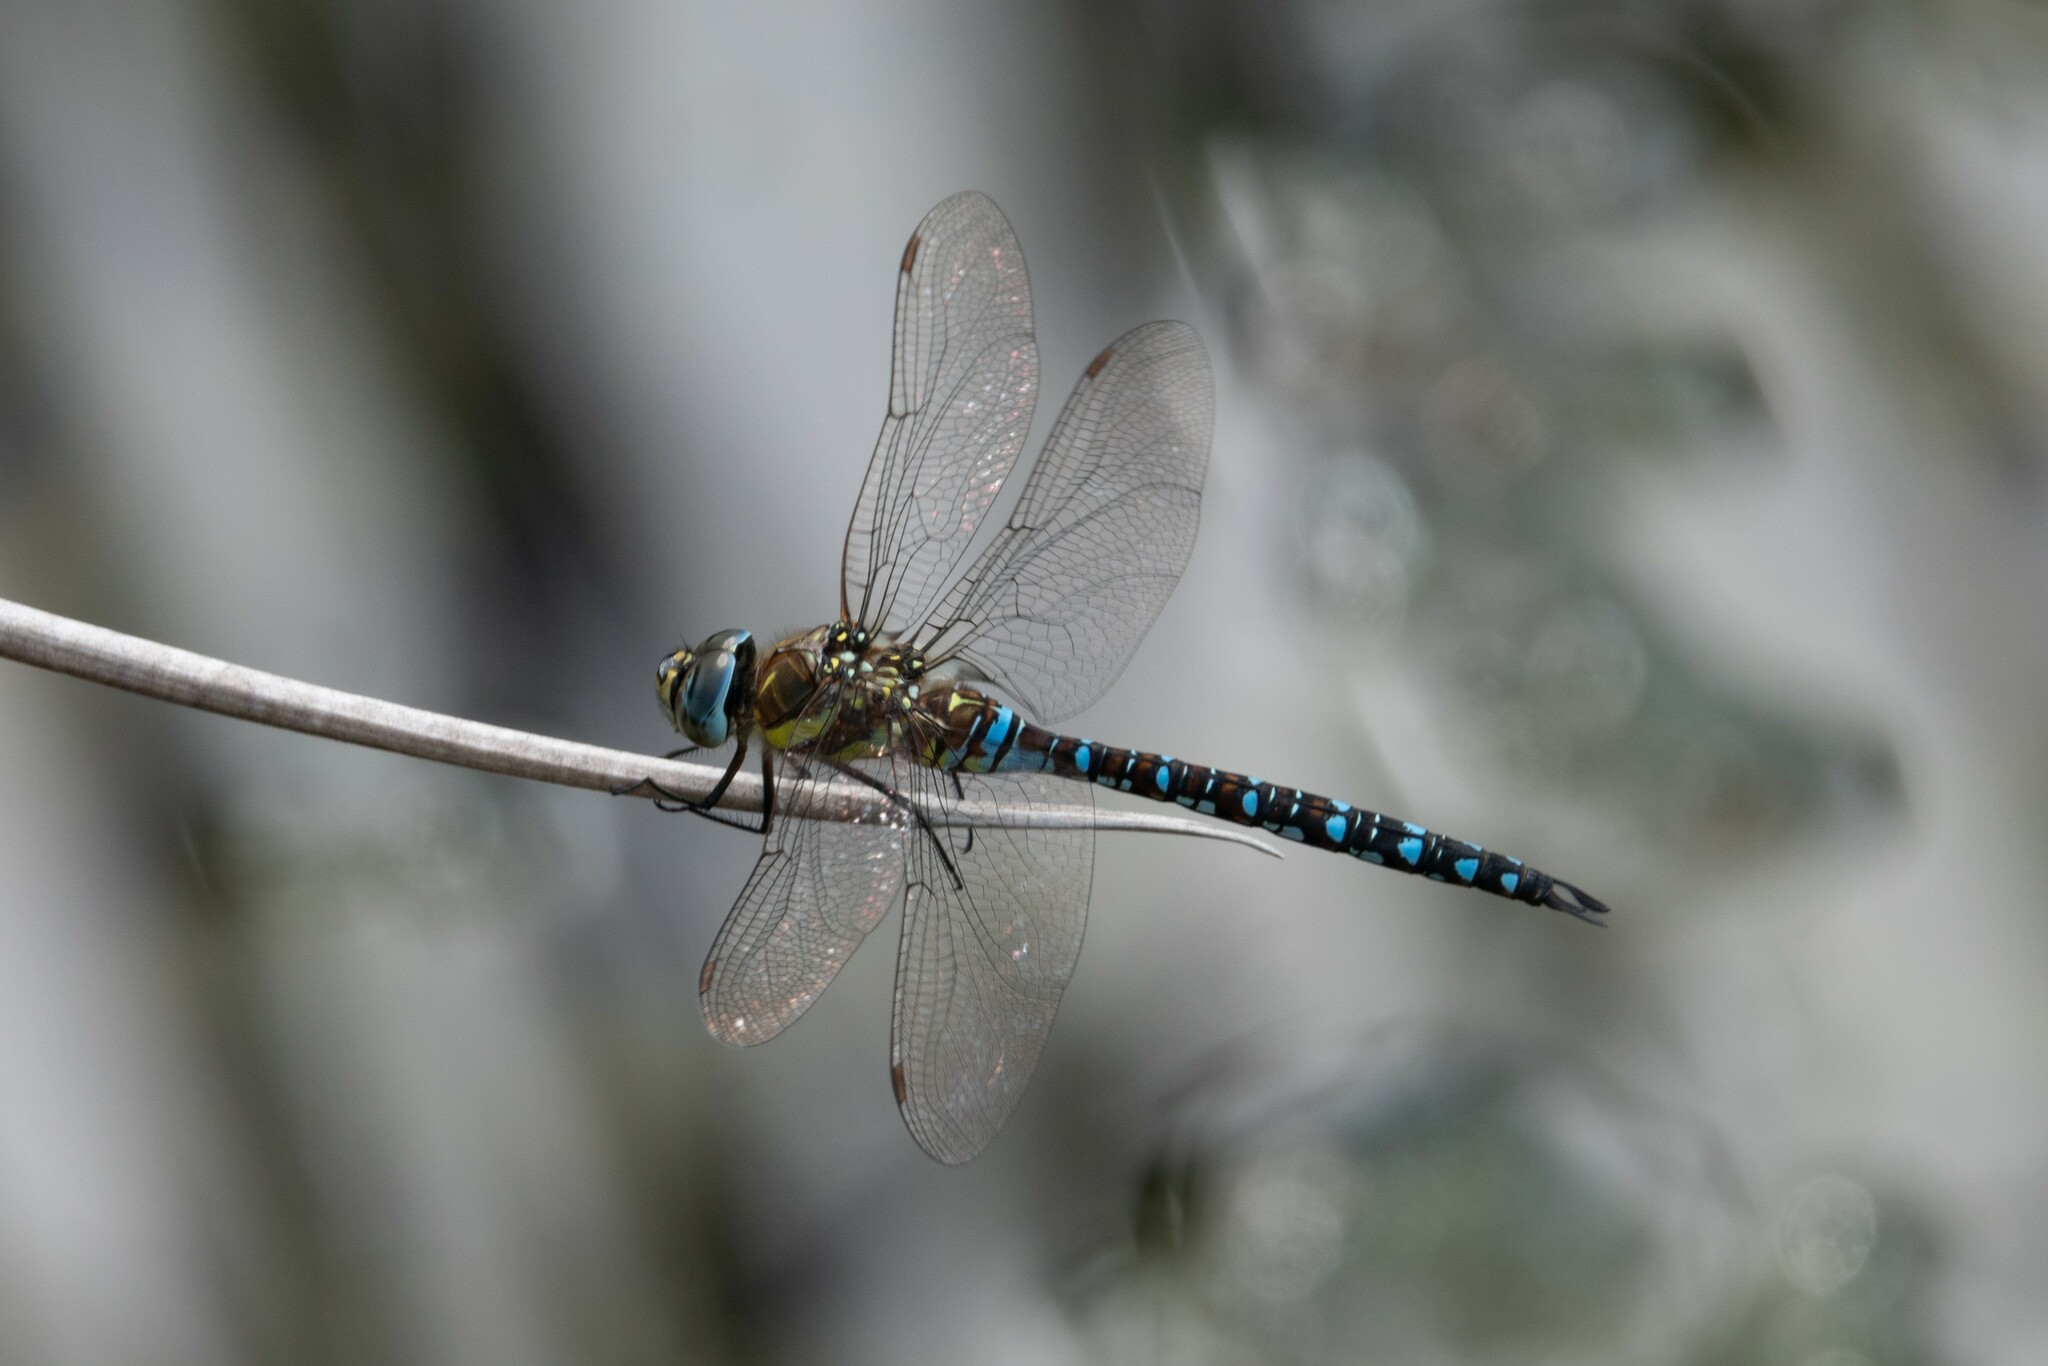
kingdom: Animalia
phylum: Arthropoda
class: Insecta
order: Odonata
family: Aeshnidae
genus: Aeshna
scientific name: Aeshna mixta
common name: Migrant hawker
